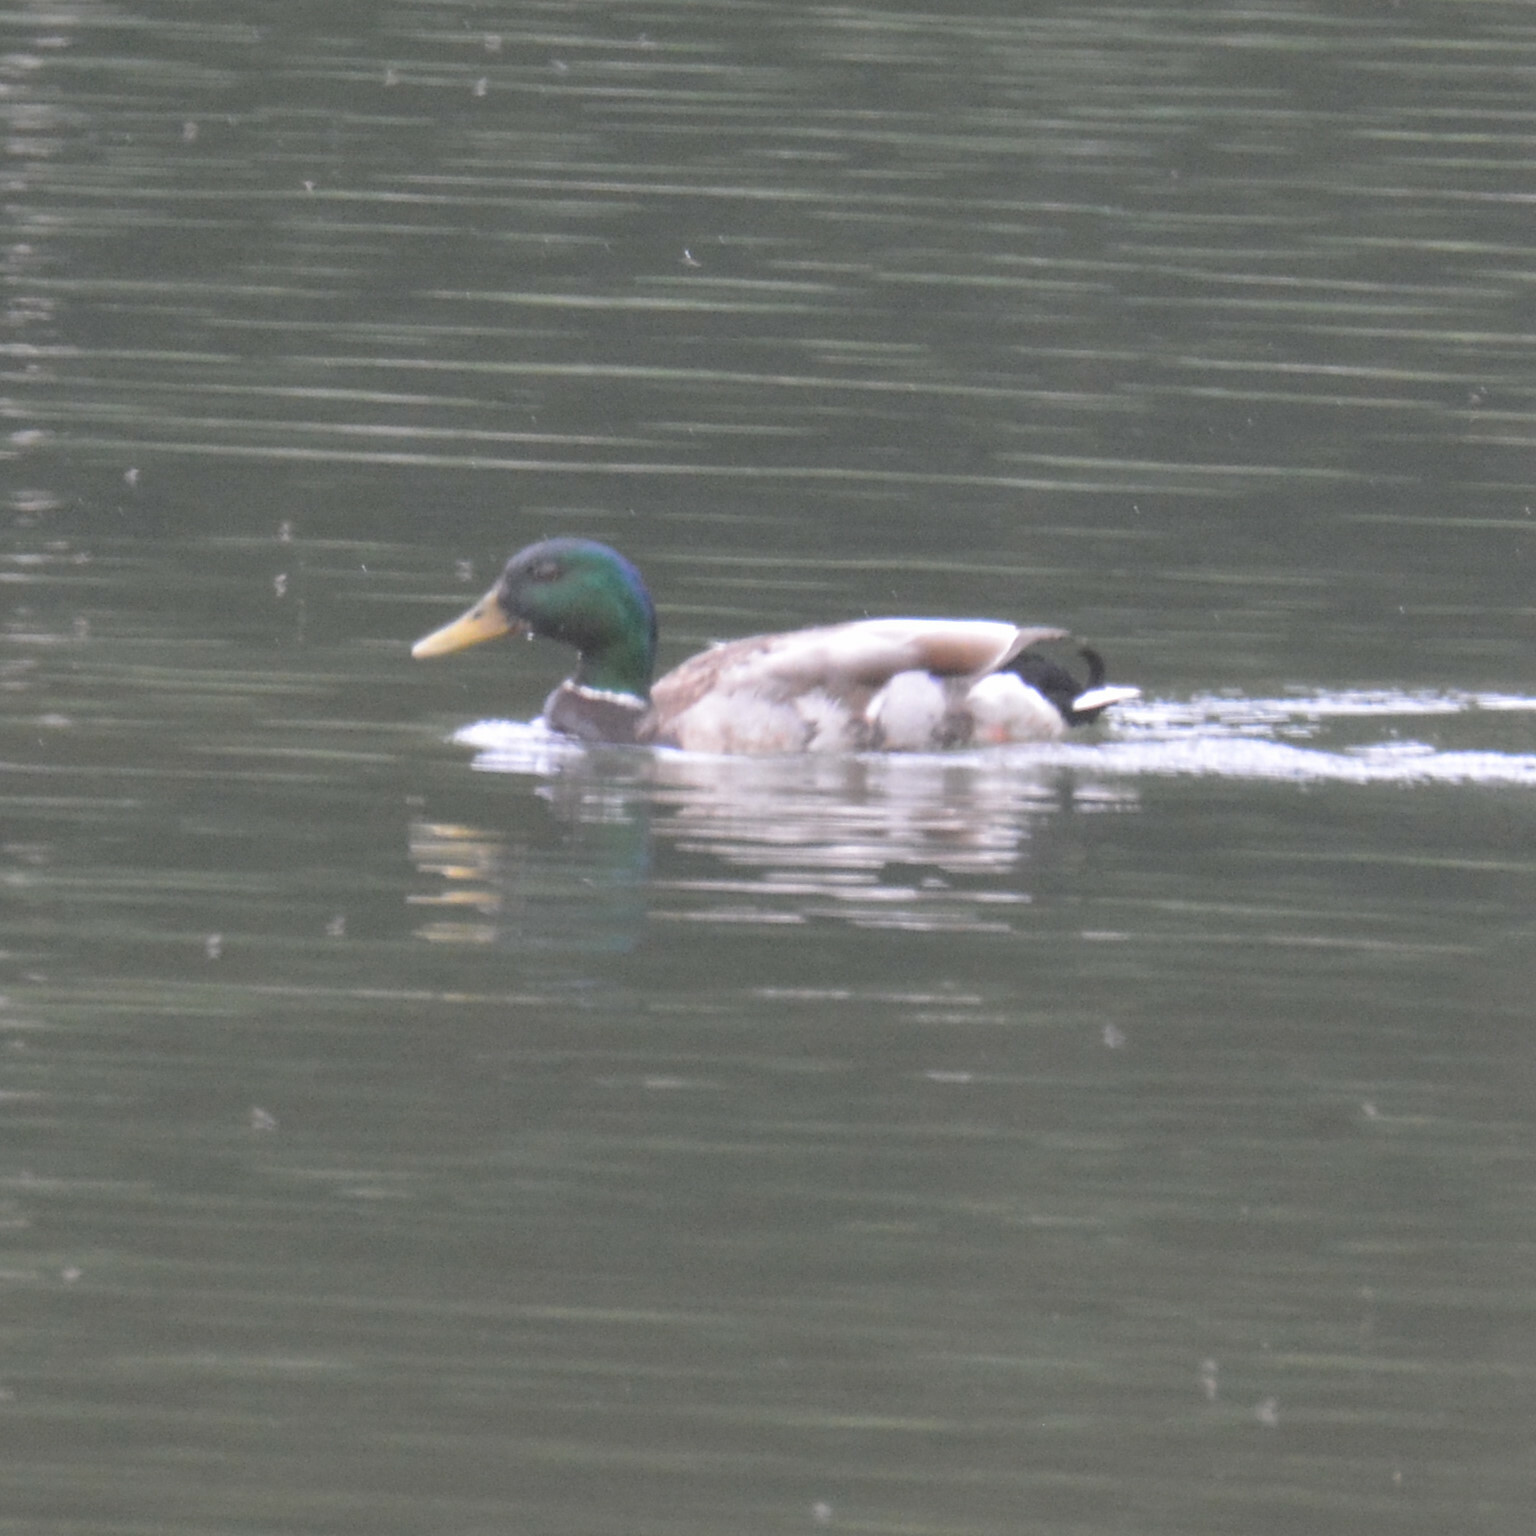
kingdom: Animalia
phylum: Chordata
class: Aves
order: Anseriformes
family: Anatidae
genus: Anas
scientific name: Anas platyrhynchos
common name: Mallard
